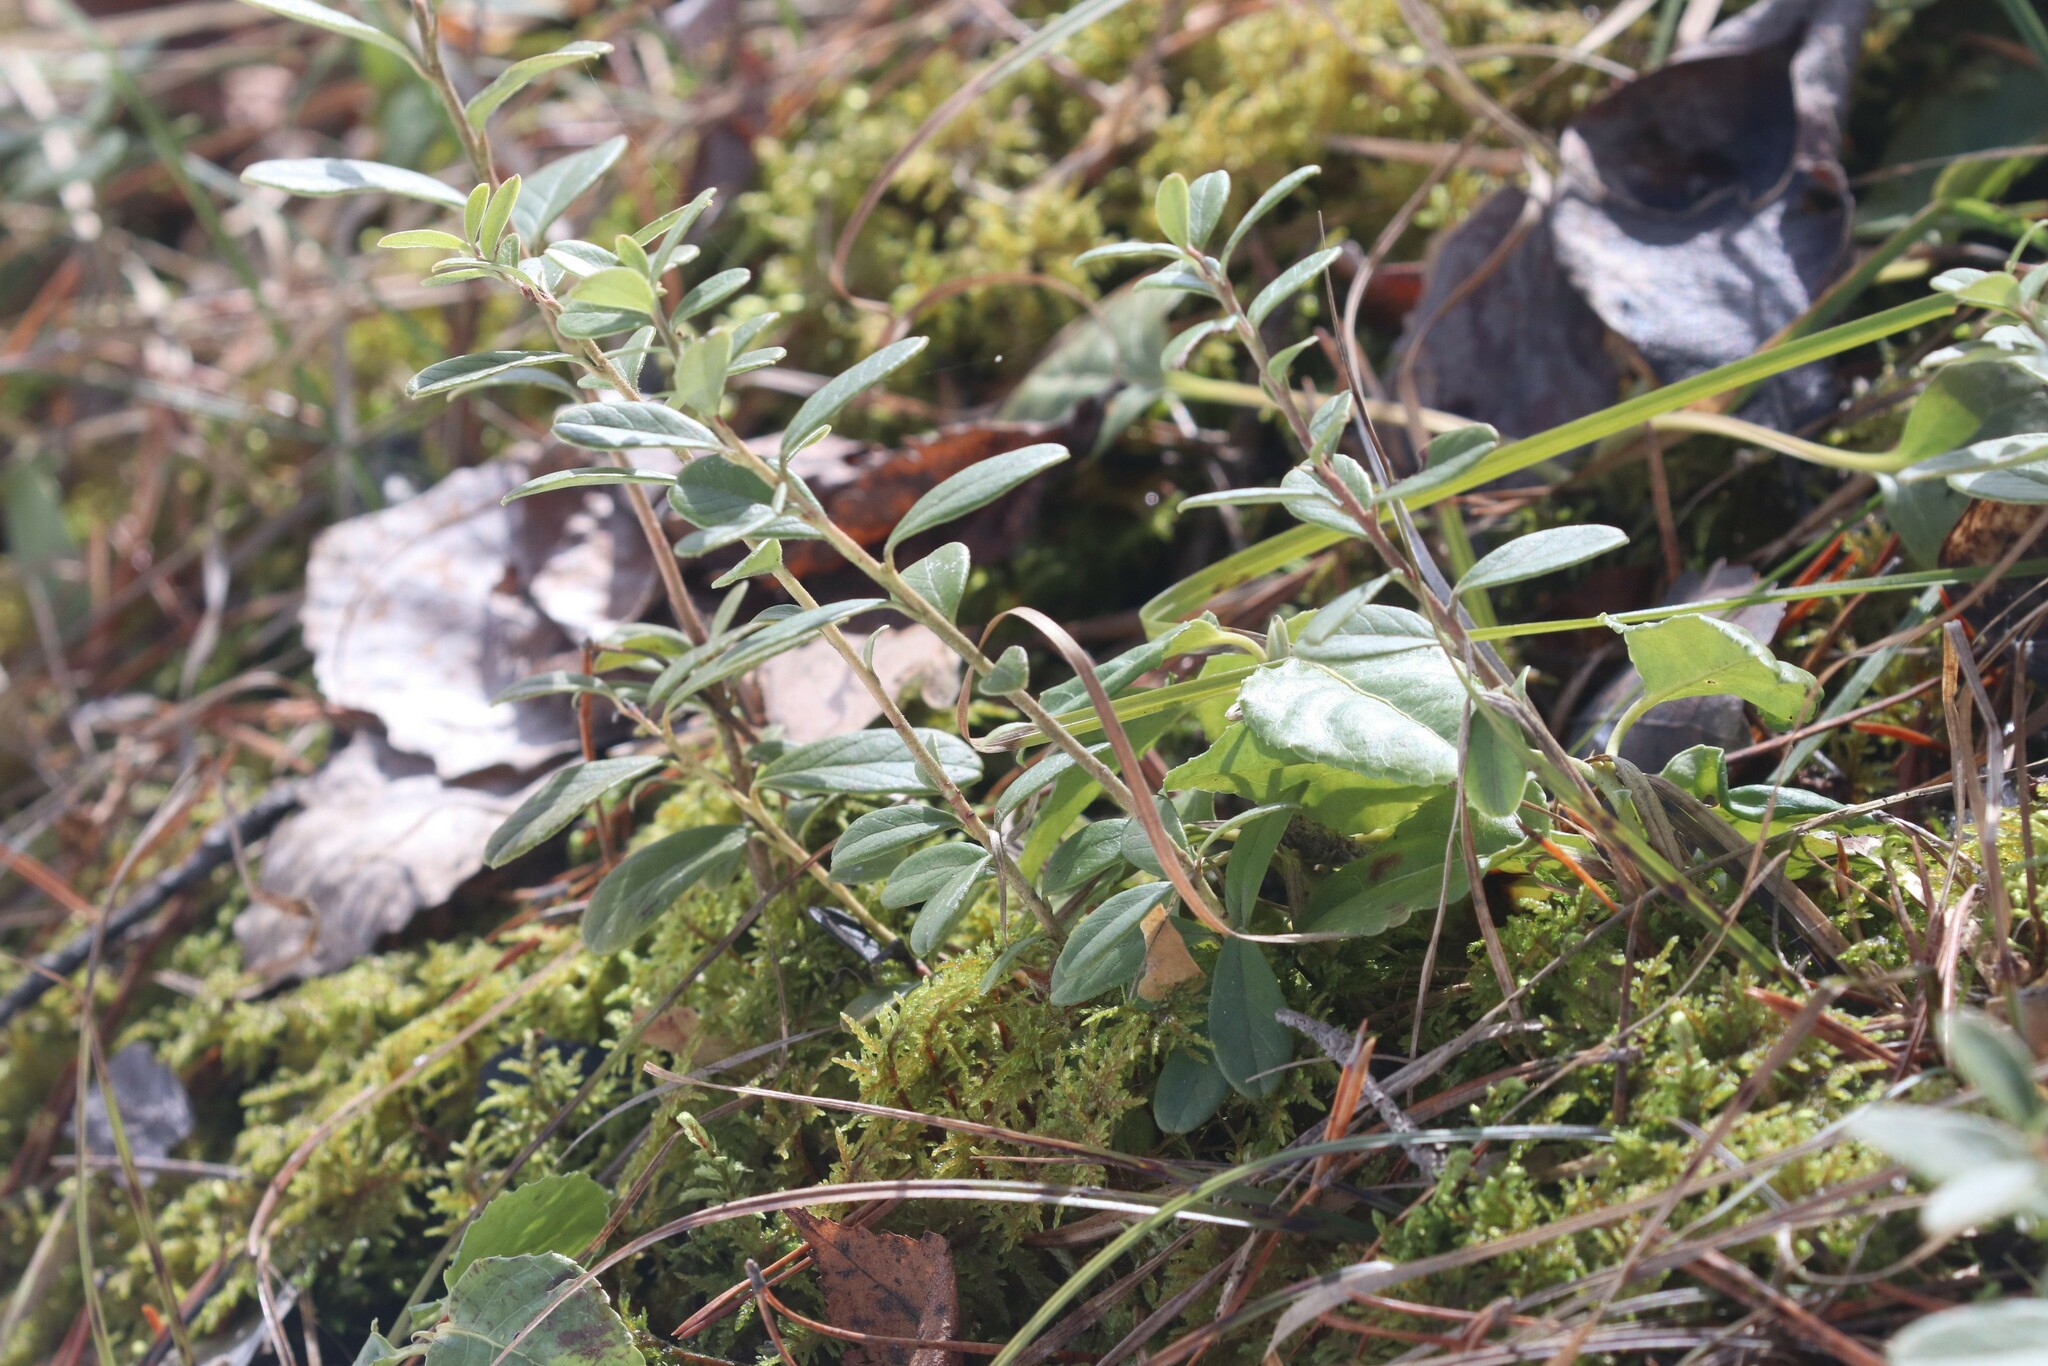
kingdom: Plantae
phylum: Tracheophyta
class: Magnoliopsida
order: Ericales
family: Ericaceae
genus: Vaccinium
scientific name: Vaccinium vitis-idaea
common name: Cowberry
